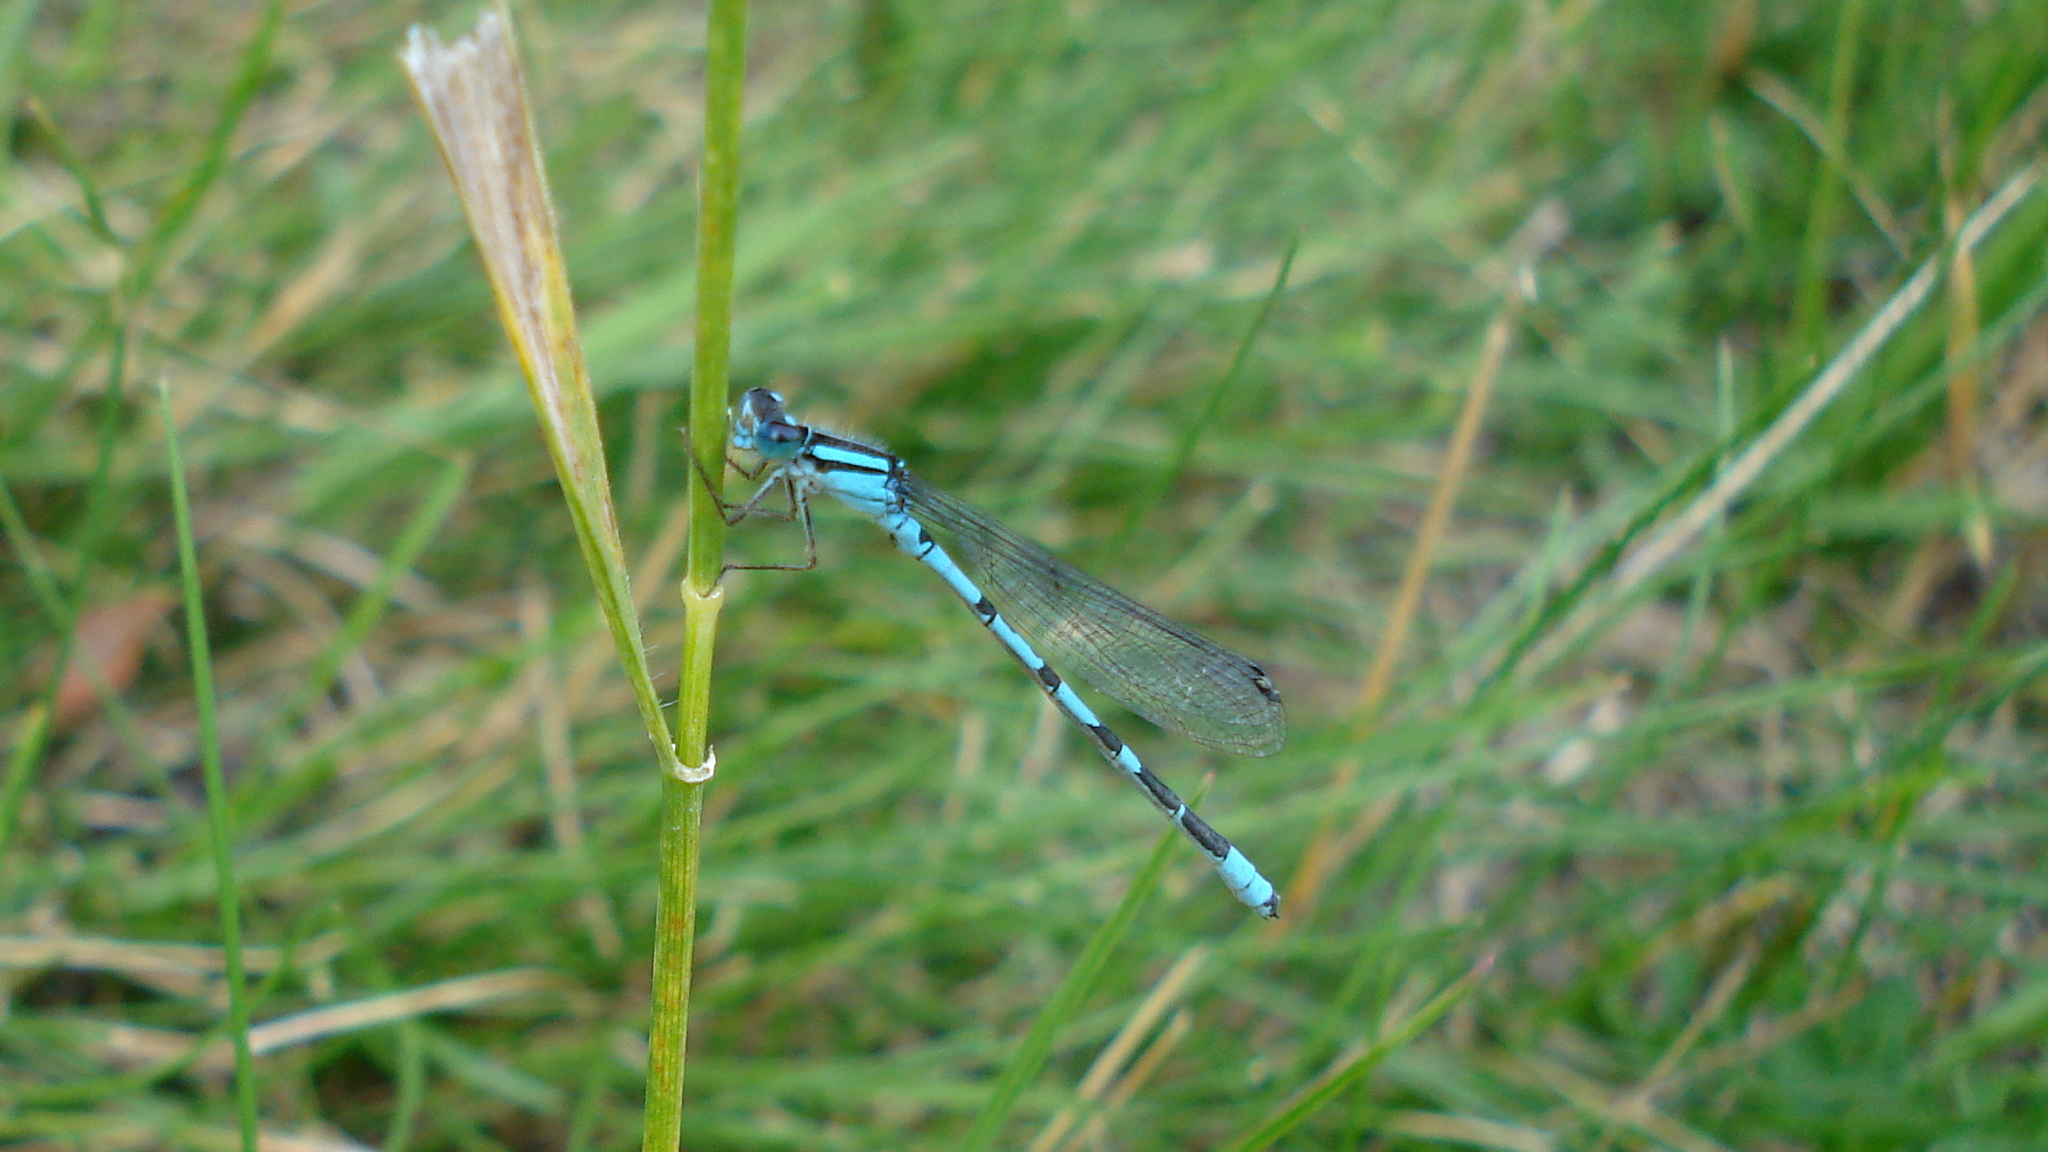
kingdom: Animalia
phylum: Arthropoda
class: Insecta
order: Odonata
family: Coenagrionidae
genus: Enallagma
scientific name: Enallagma
